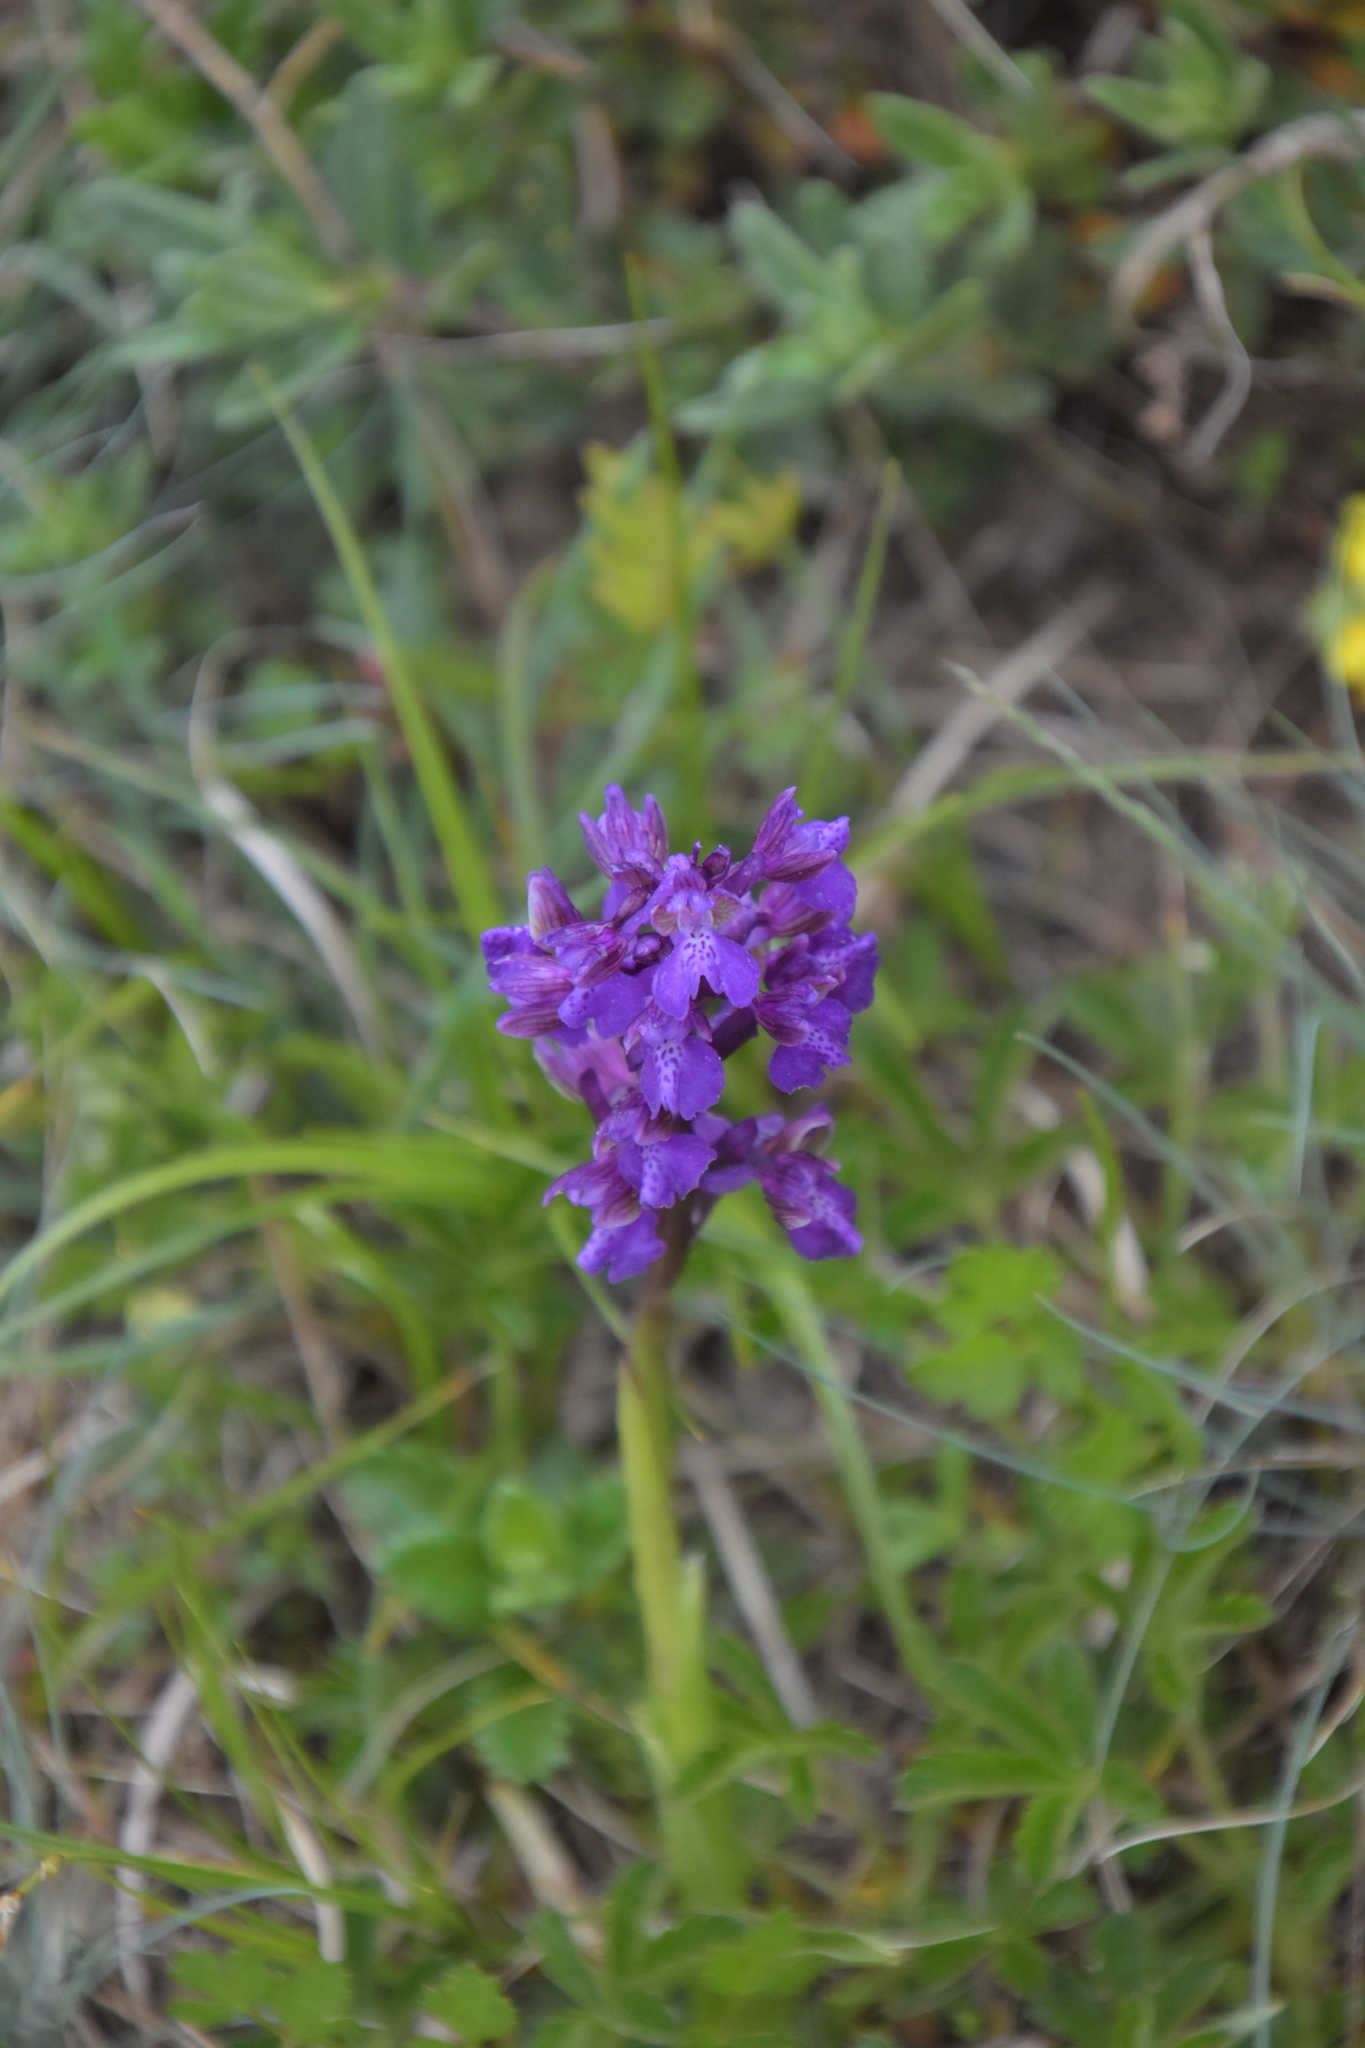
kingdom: Plantae
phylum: Tracheophyta
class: Liliopsida
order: Asparagales
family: Orchidaceae
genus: Anacamptis
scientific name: Anacamptis morio
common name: Green-winged orchid
